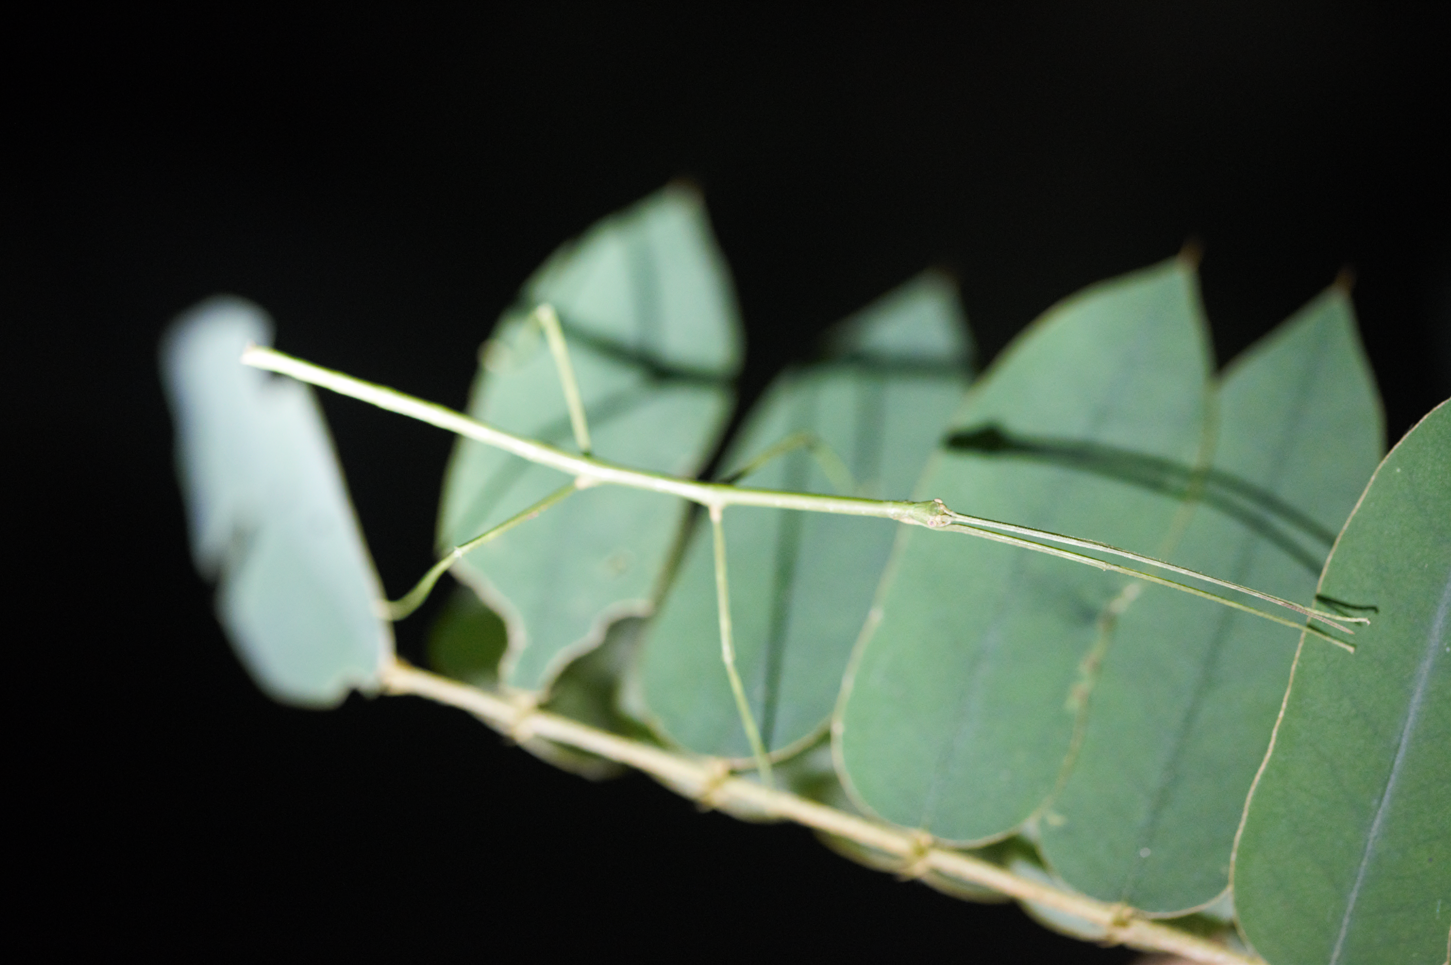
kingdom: Animalia
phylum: Arthropoda
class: Insecta
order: Phasmida
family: Diapheromeridae
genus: Phanocloidea
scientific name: Phanocloidea muricata
